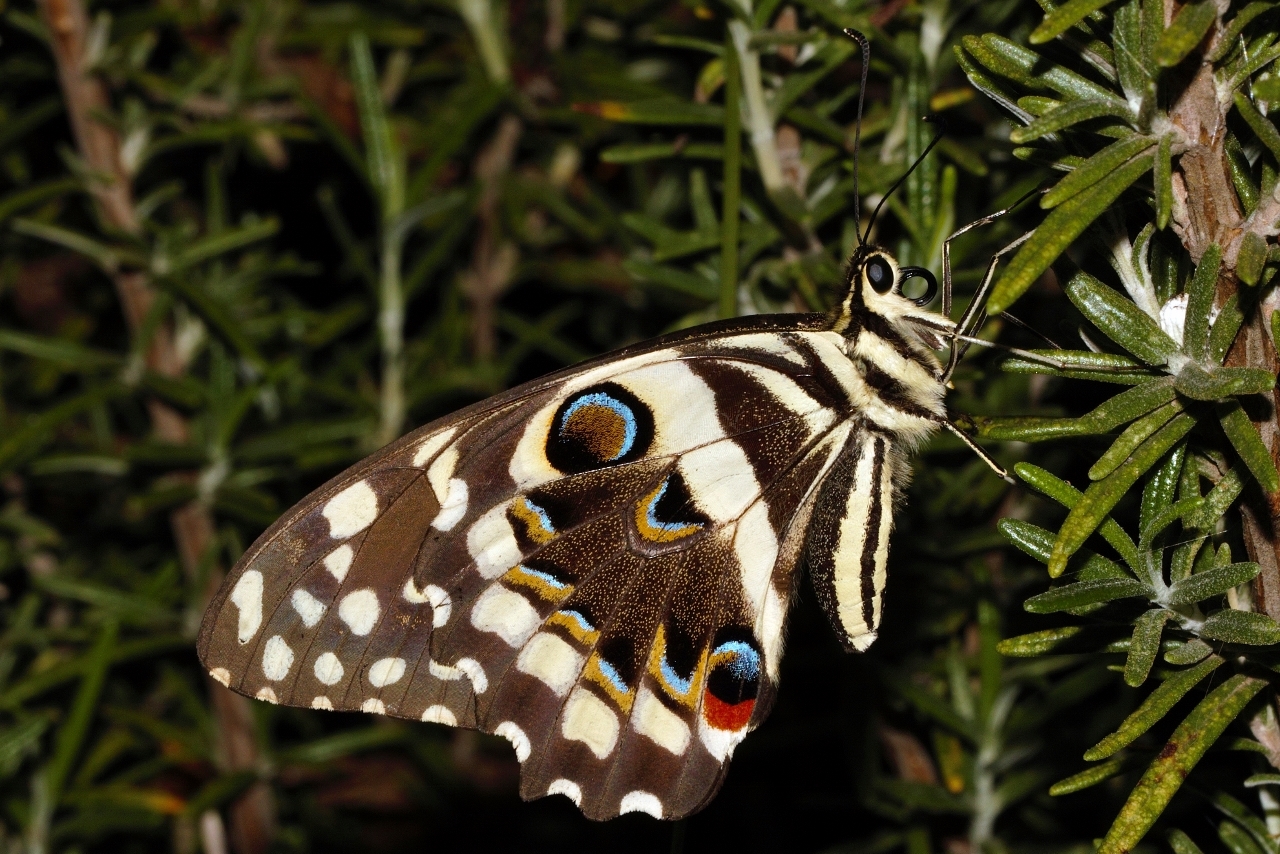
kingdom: Animalia
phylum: Arthropoda
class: Insecta
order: Lepidoptera
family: Papilionidae
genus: Papilio
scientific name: Papilio demodocus
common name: Christmas butterfly
